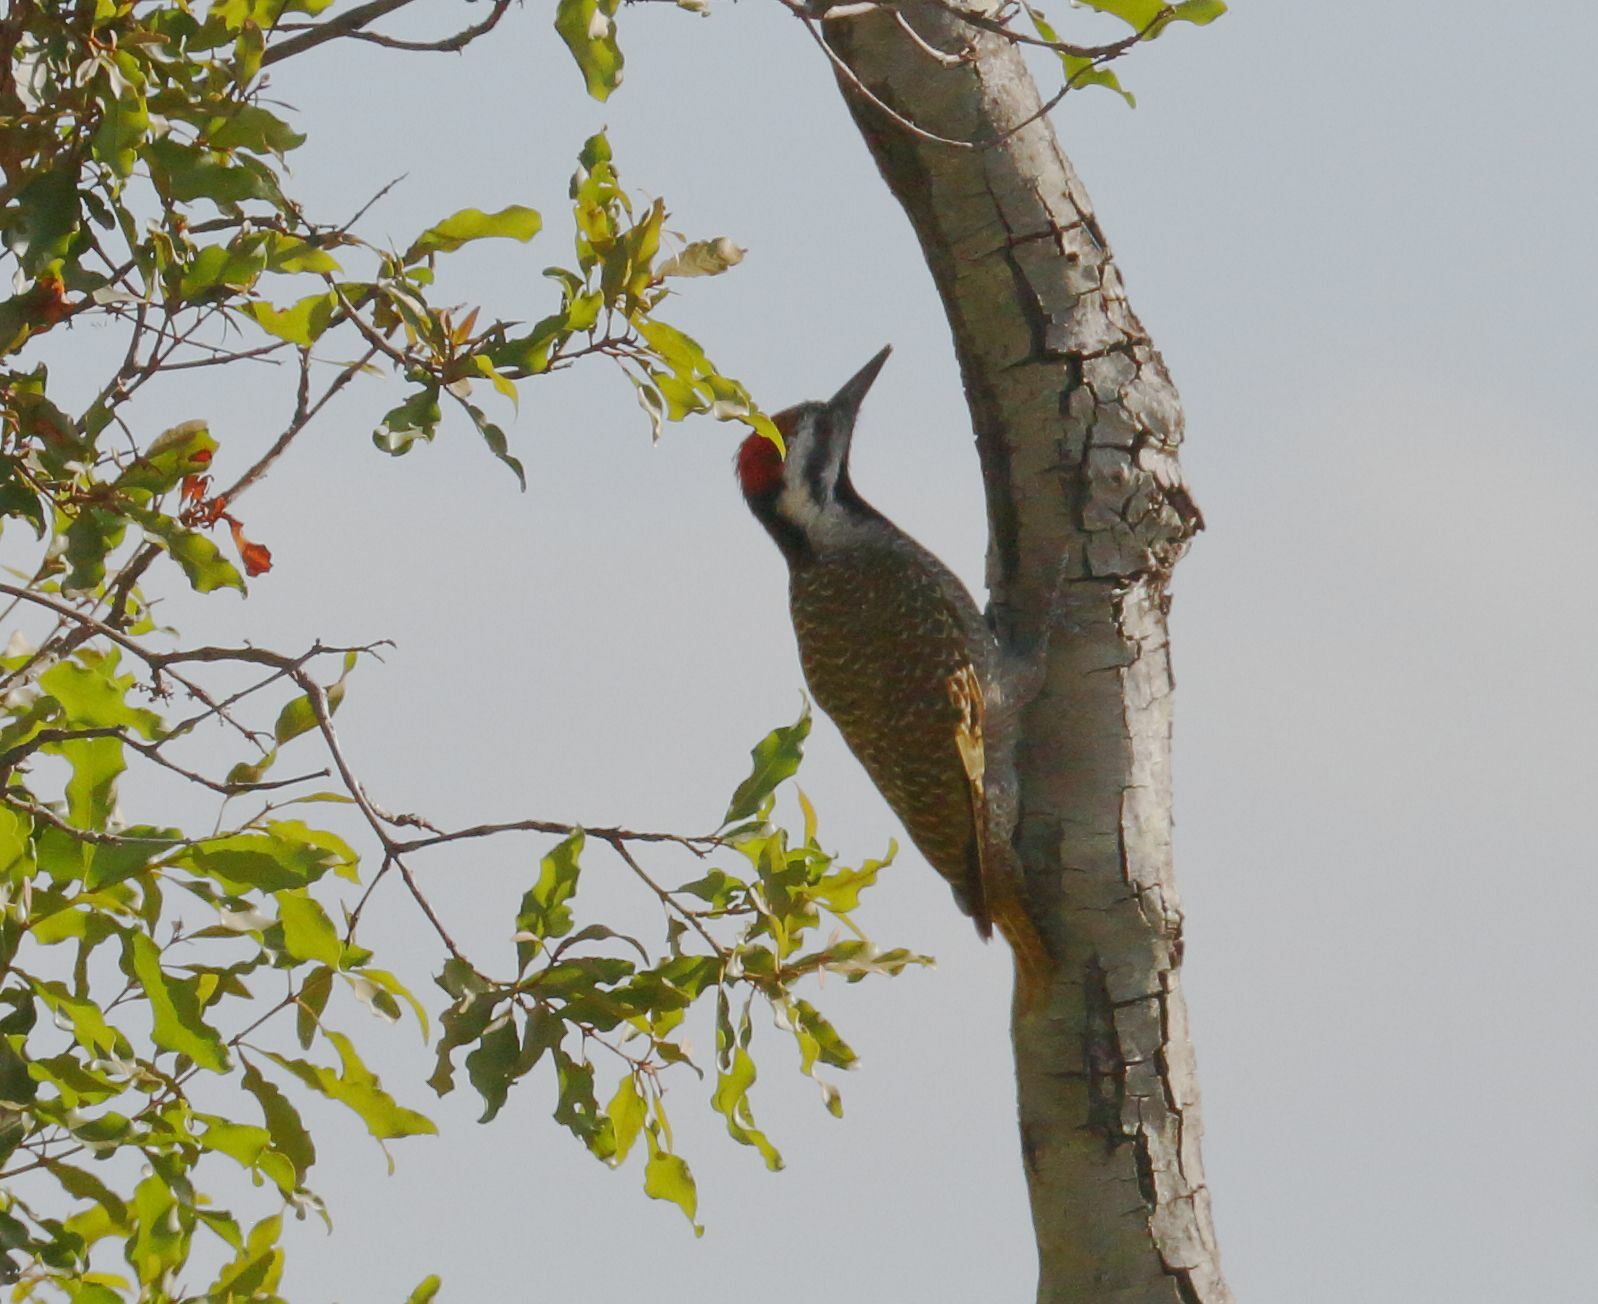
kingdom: Animalia
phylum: Chordata
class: Aves
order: Piciformes
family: Picidae
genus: Chloropicus
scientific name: Chloropicus namaquus
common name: Bearded woodpecker
